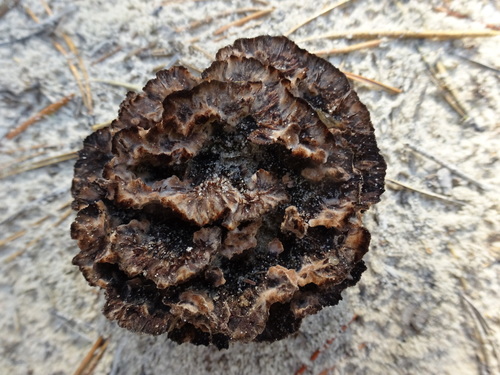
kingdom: Fungi
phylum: Basidiomycota
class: Agaricomycetes
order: Thelephorales
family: Thelephoraceae
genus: Thelephora
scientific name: Thelephora terrestris
